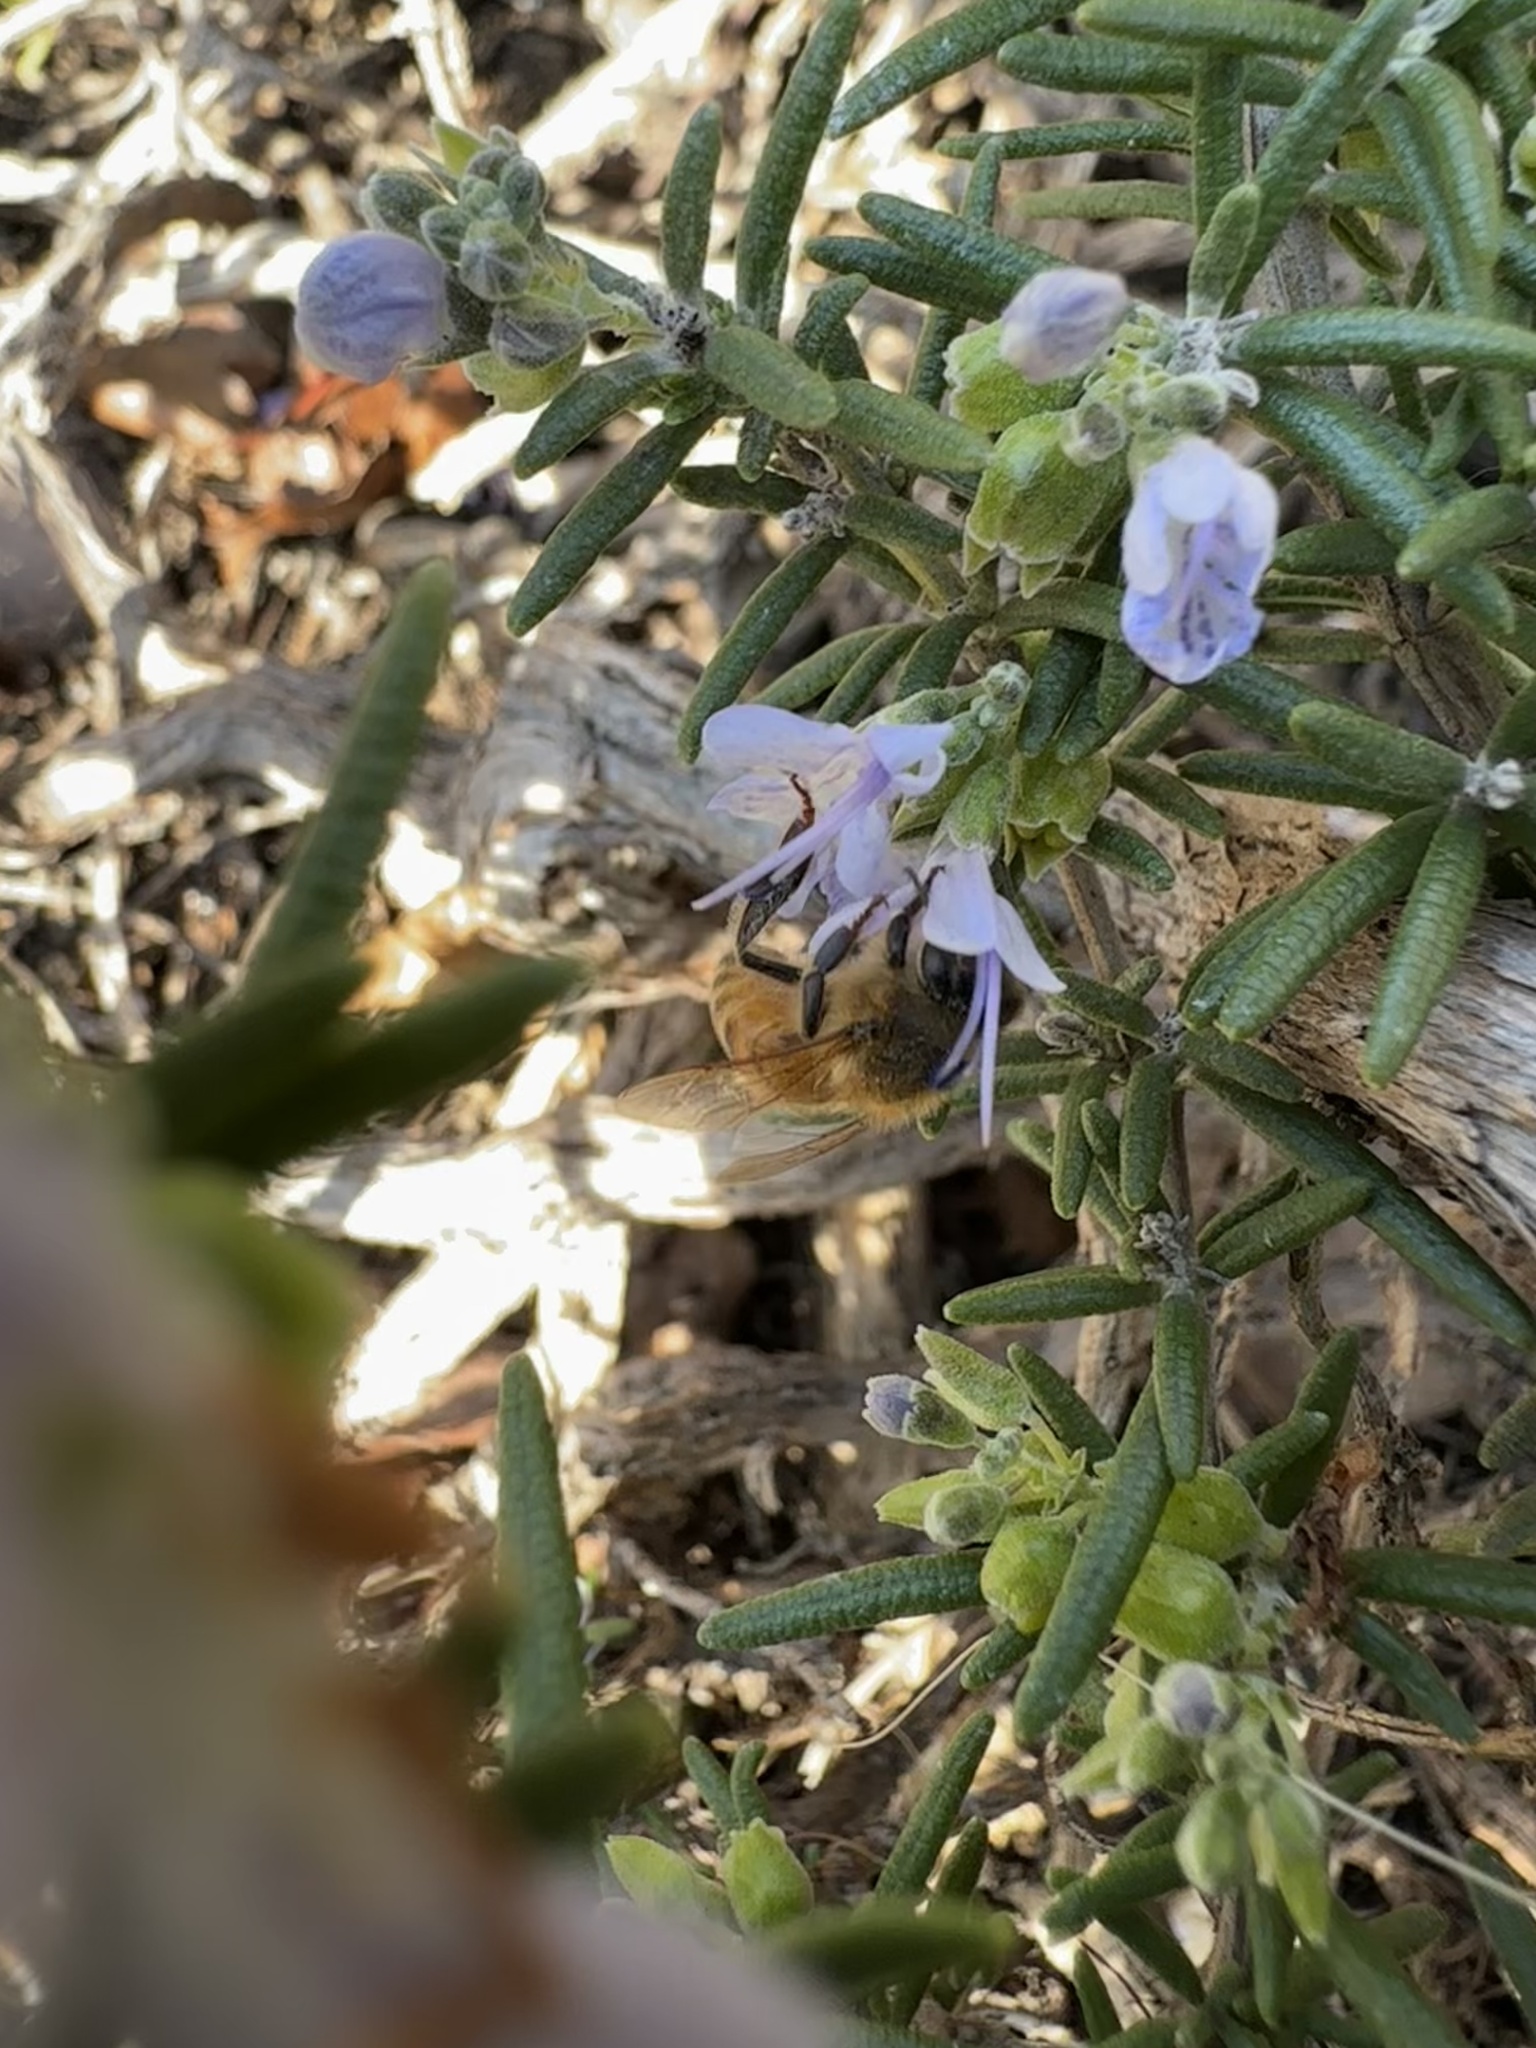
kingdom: Animalia
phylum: Arthropoda
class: Insecta
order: Hymenoptera
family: Apidae
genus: Apis
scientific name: Apis mellifera
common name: Honey bee
